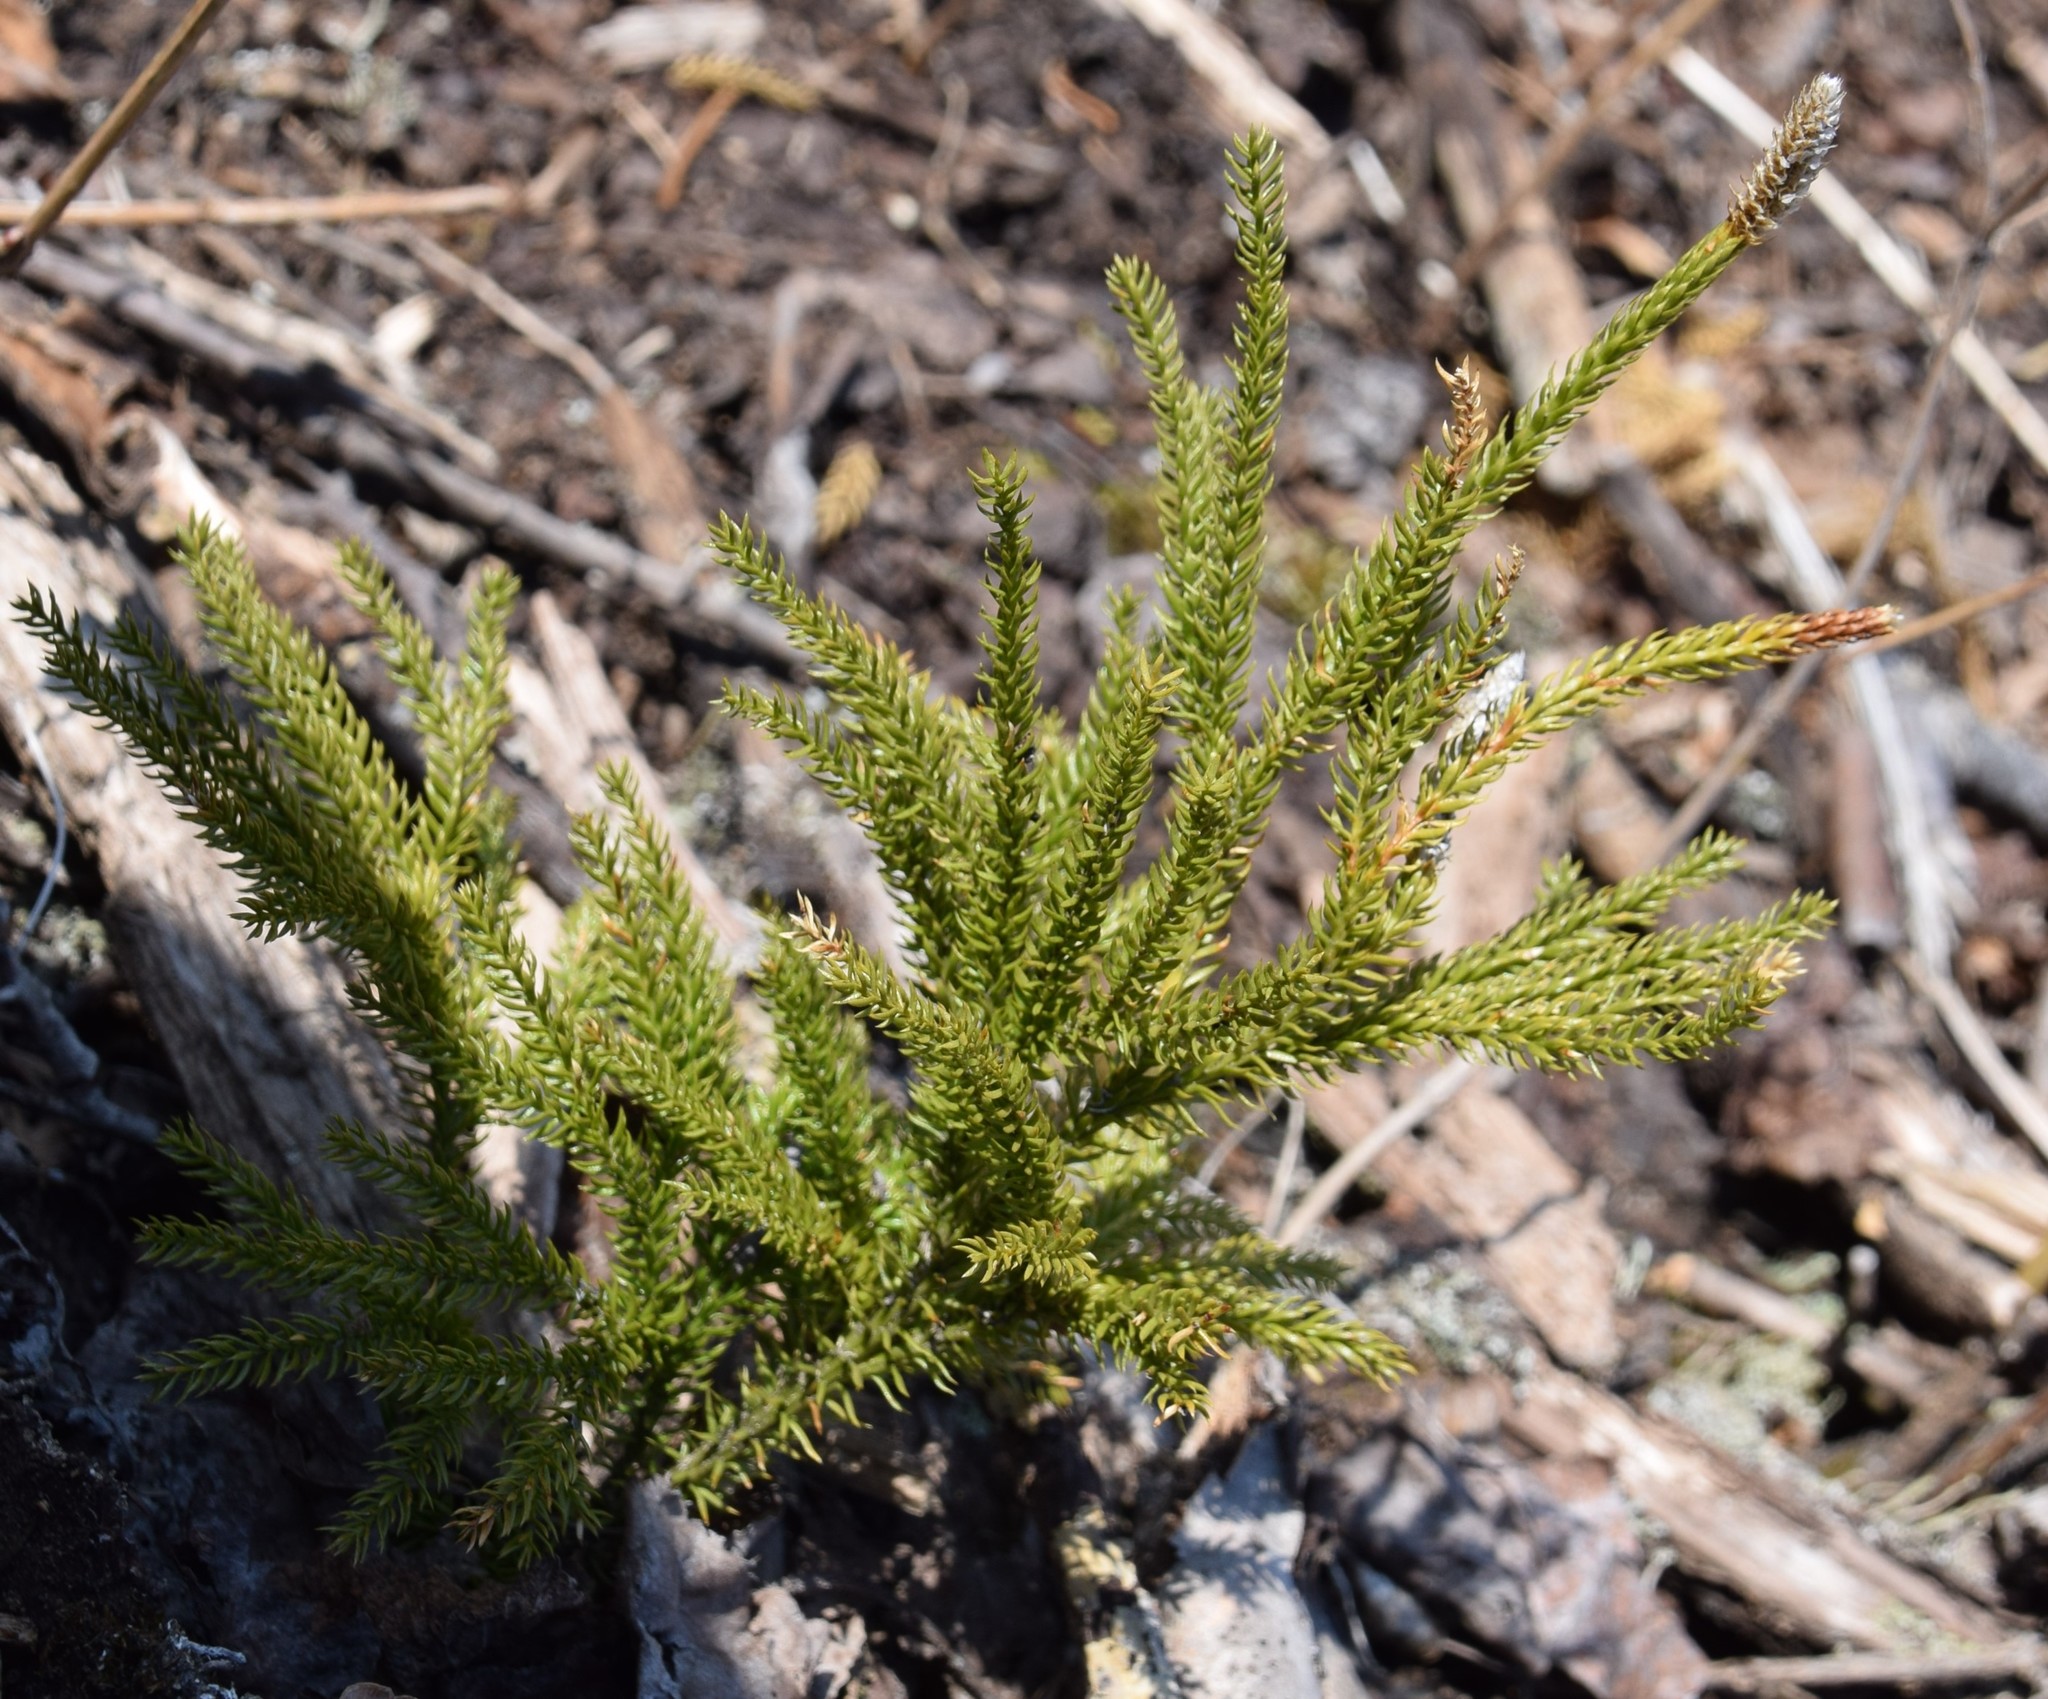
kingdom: Plantae
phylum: Tracheophyta
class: Lycopodiopsida
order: Lycopodiales
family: Lycopodiaceae
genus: Dendrolycopodium
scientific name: Dendrolycopodium dendroideum
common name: Northern tree-clubmoss
